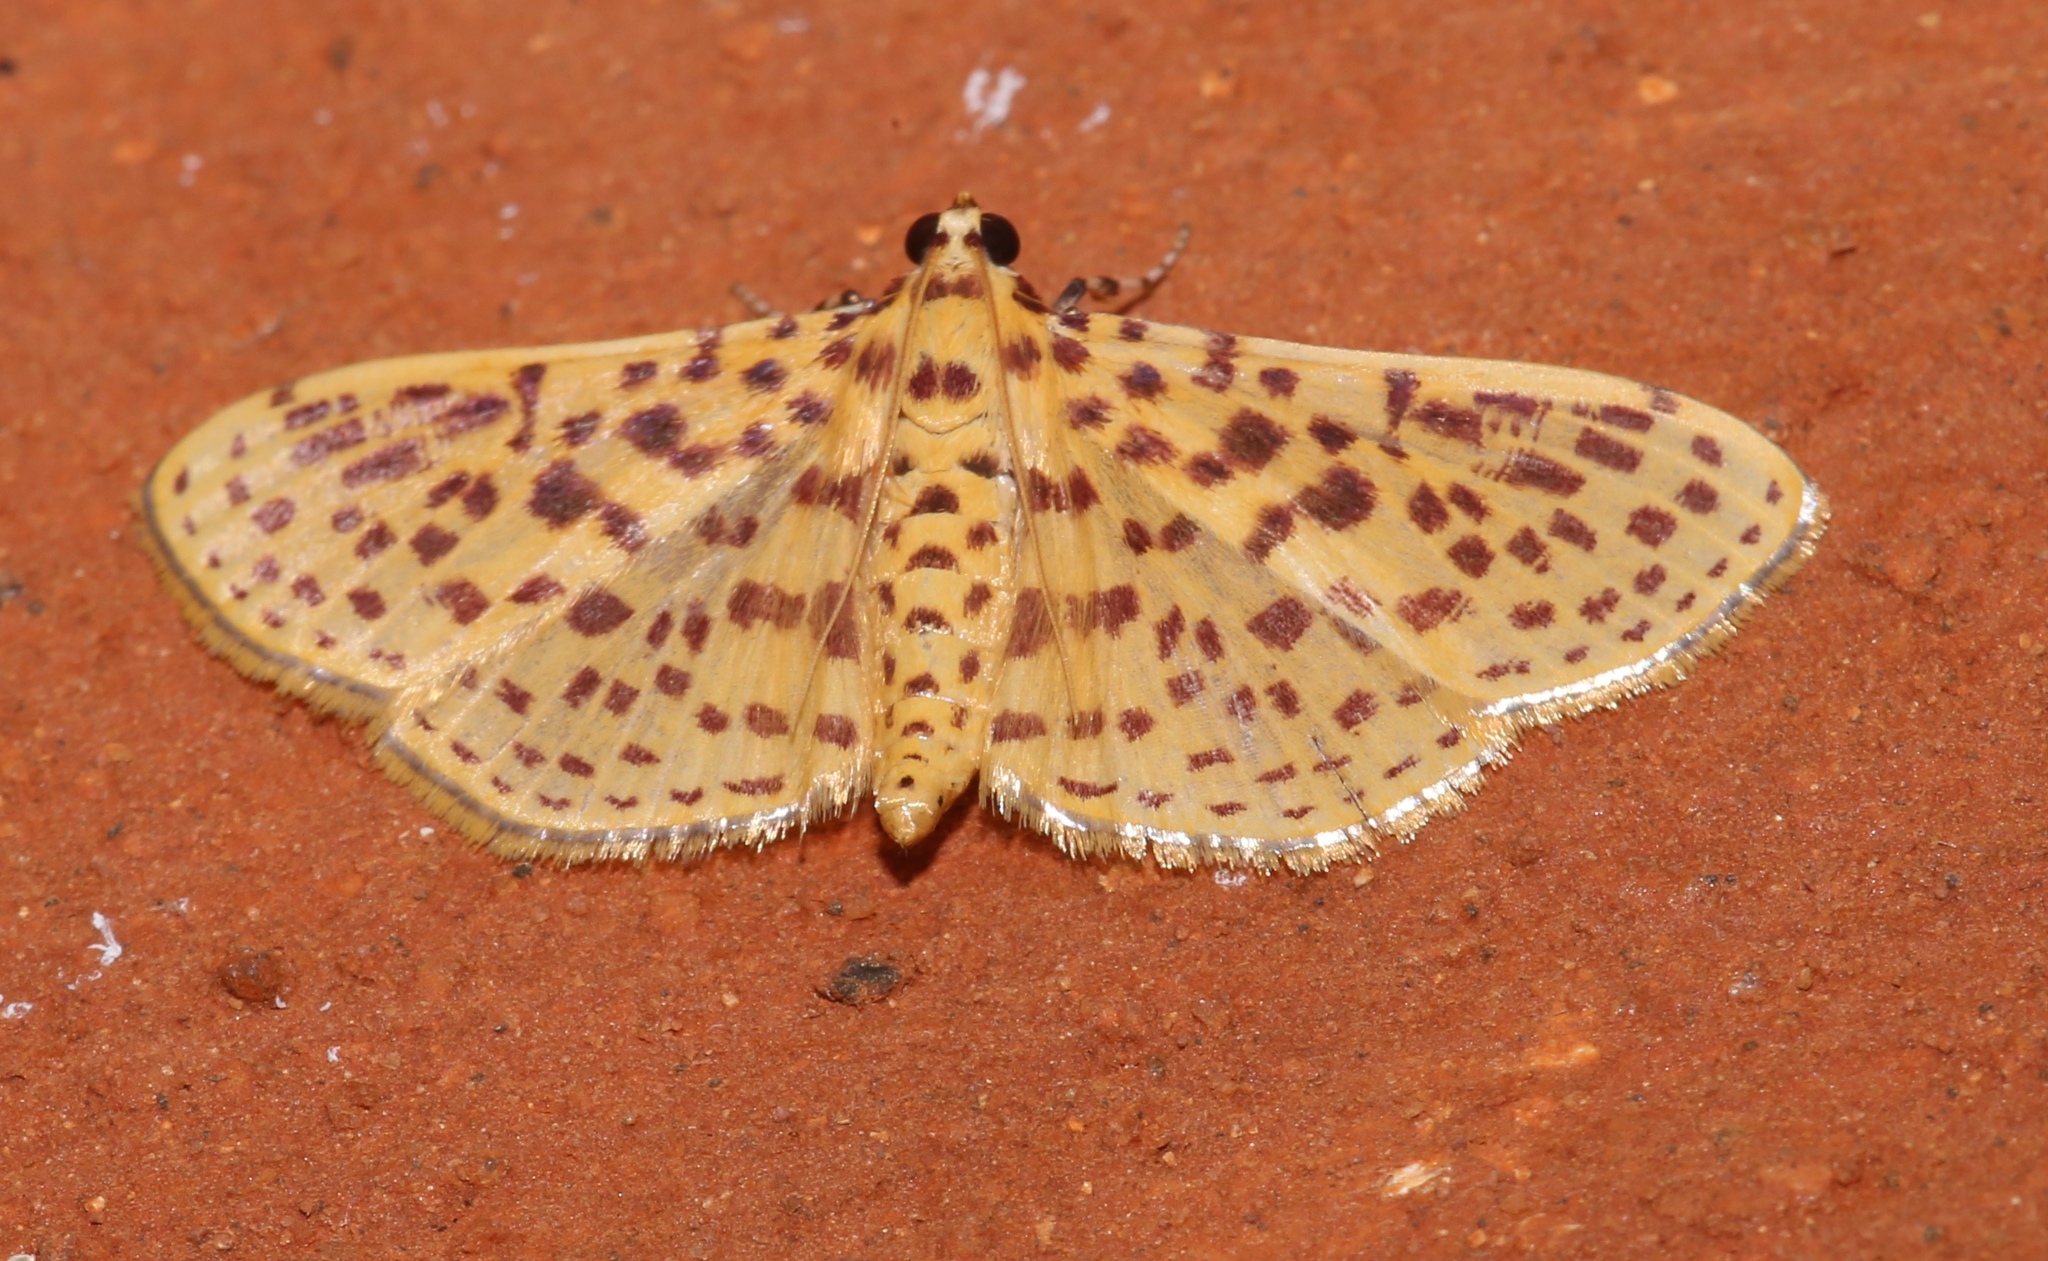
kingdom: Animalia
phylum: Arthropoda
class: Insecta
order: Lepidoptera
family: Crambidae
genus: Polygrammodes
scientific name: Polygrammodes elevata
